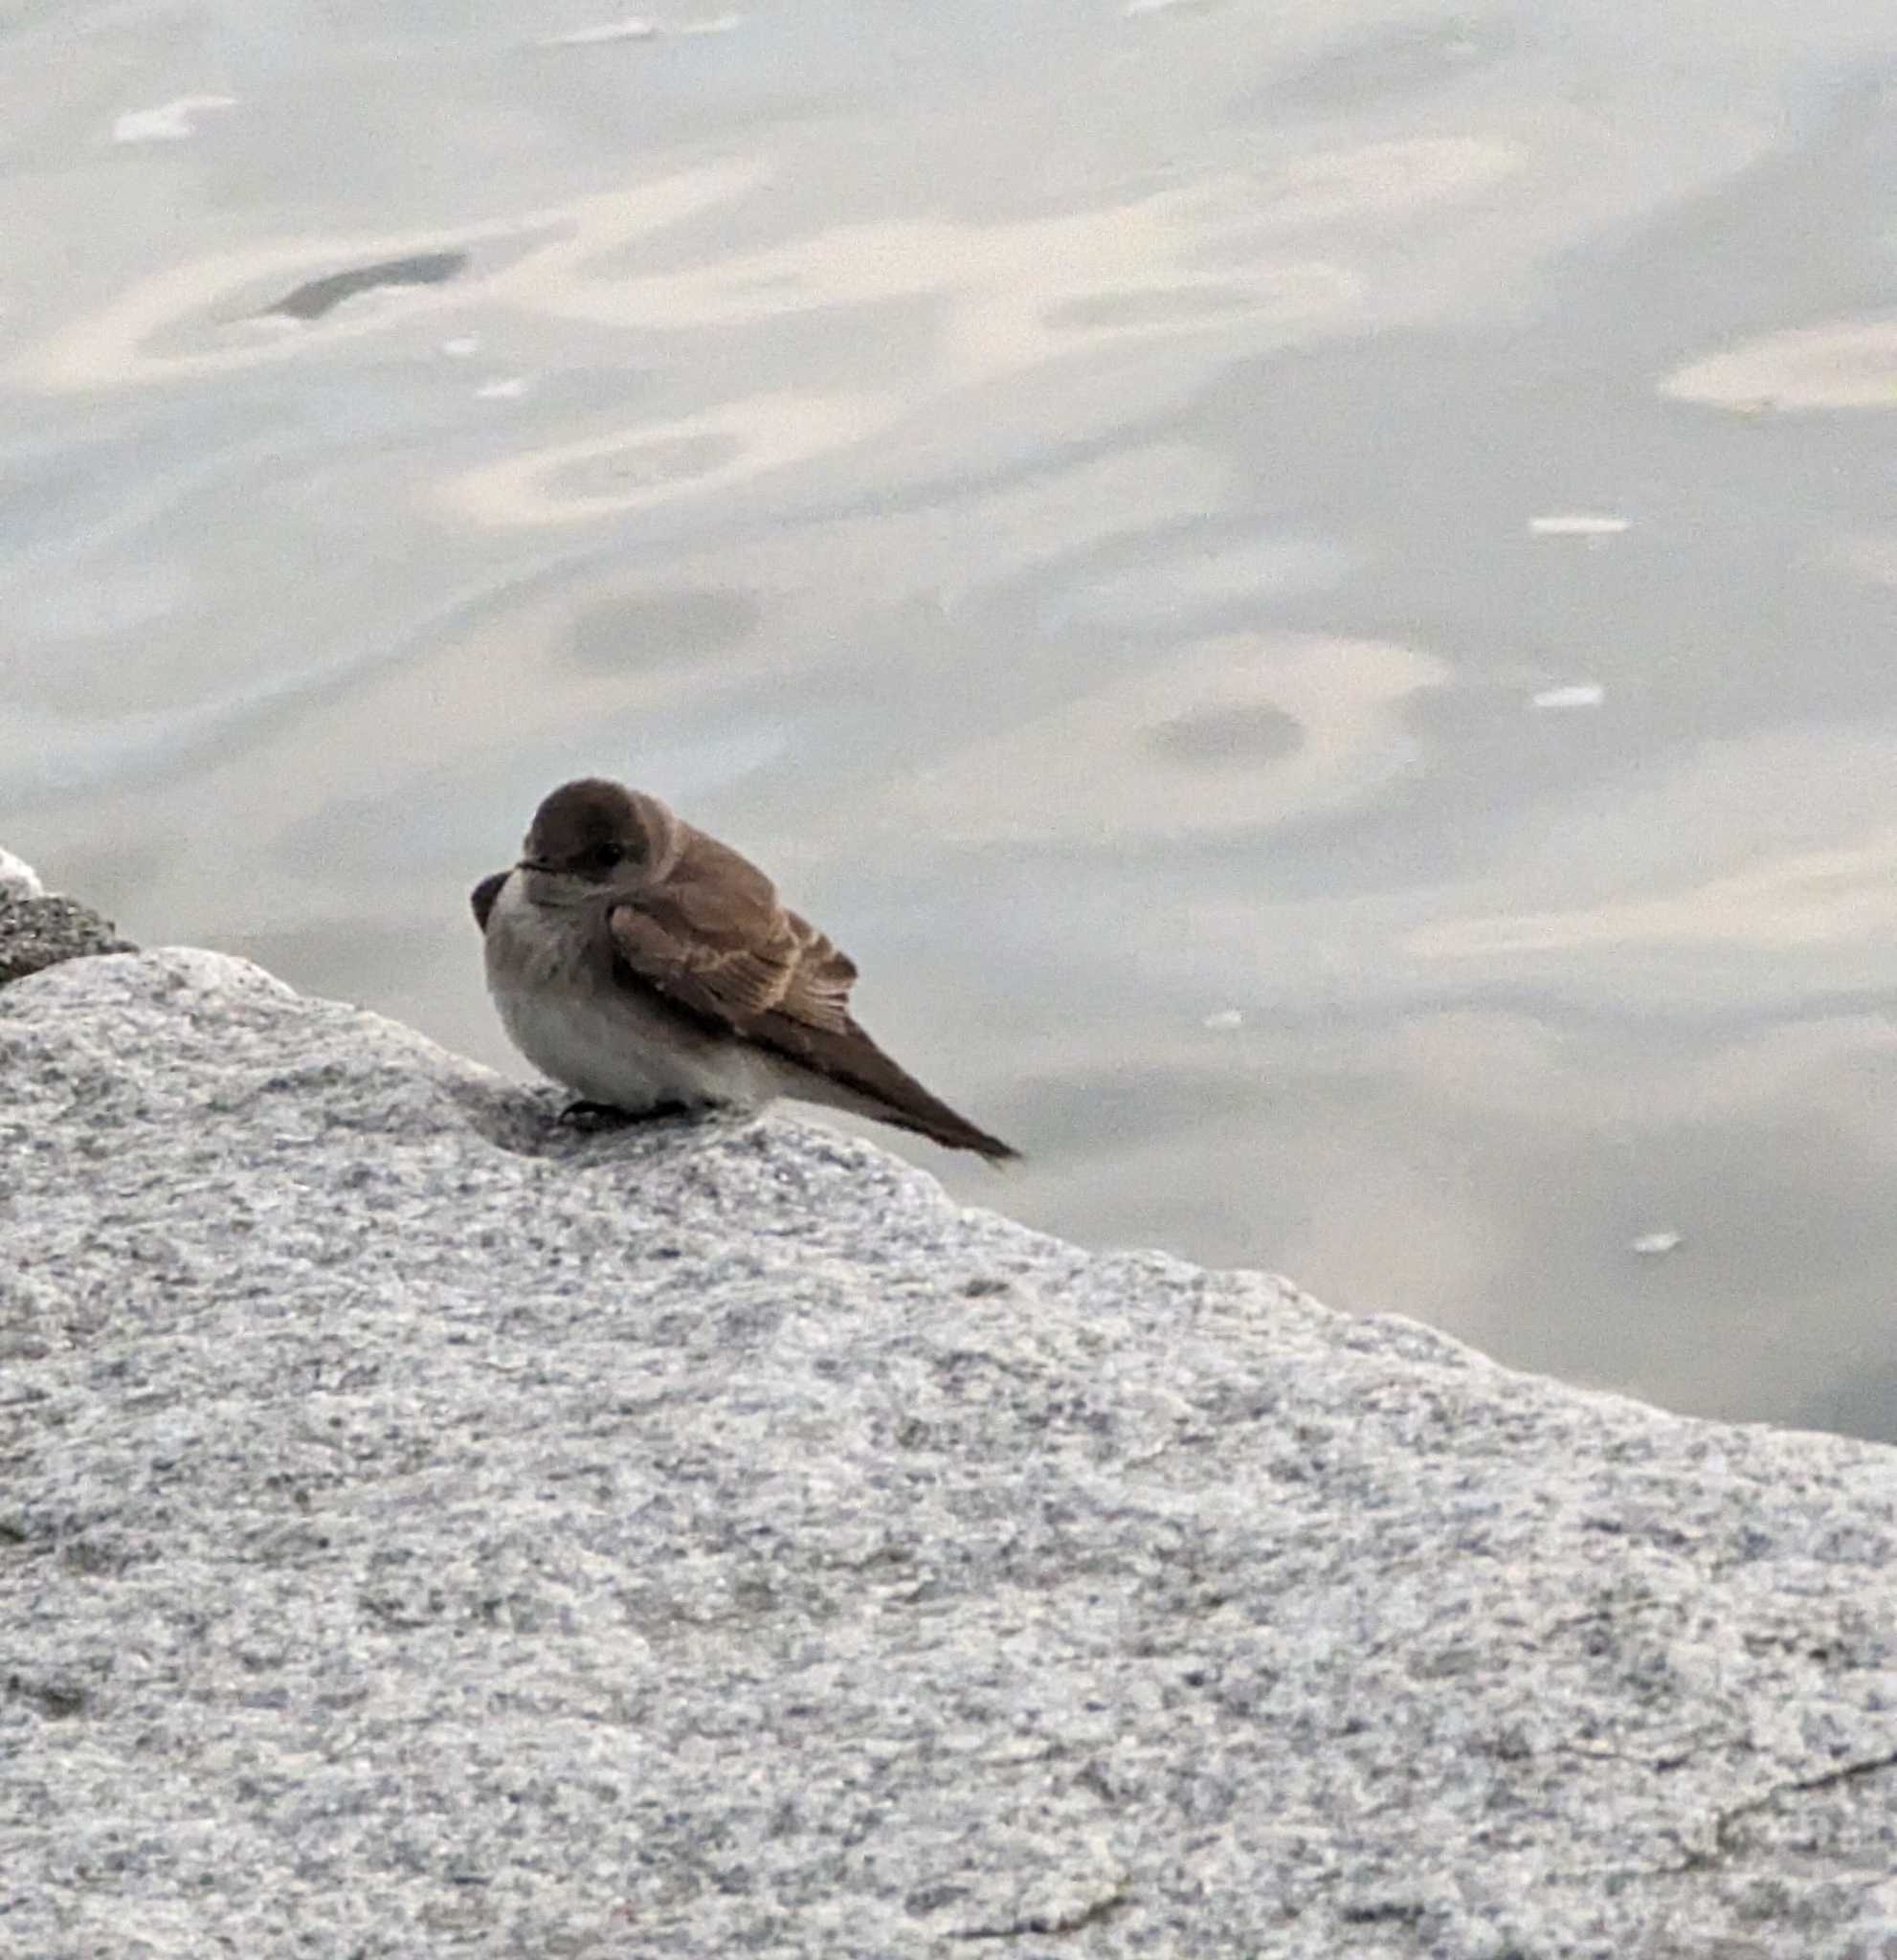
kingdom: Animalia
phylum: Chordata
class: Aves
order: Passeriformes
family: Hirundinidae
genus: Stelgidopteryx
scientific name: Stelgidopteryx serripennis
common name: Northern rough-winged swallow
